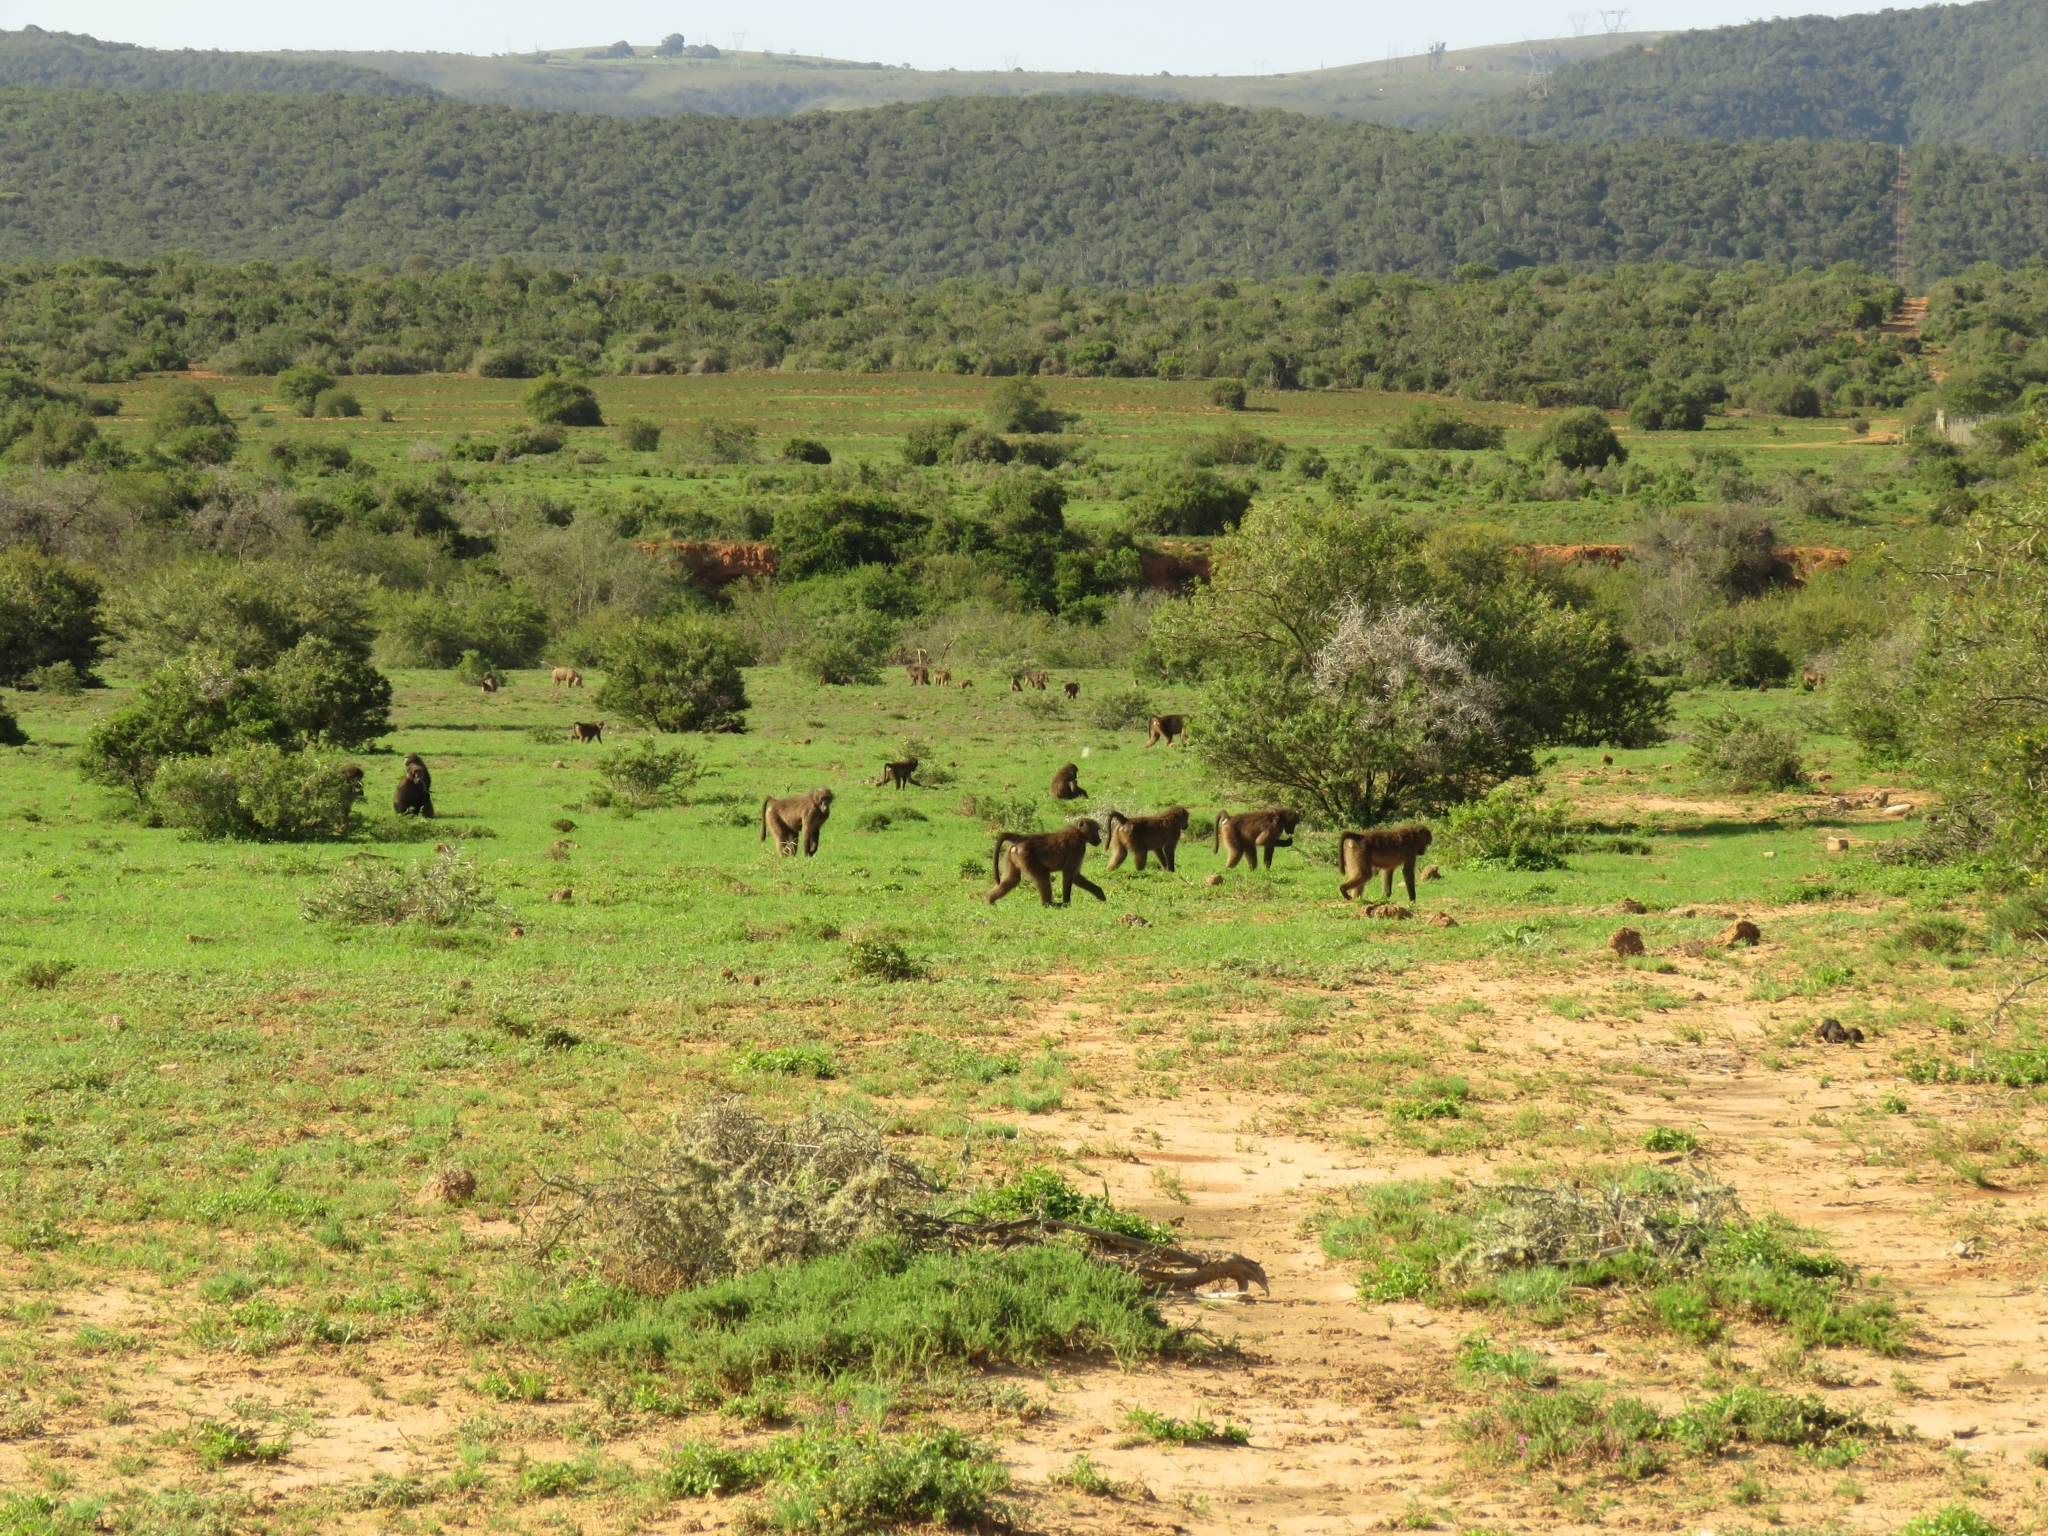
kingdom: Animalia
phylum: Chordata
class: Mammalia
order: Primates
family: Cercopithecidae
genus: Papio
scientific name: Papio ursinus
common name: Chacma baboon
